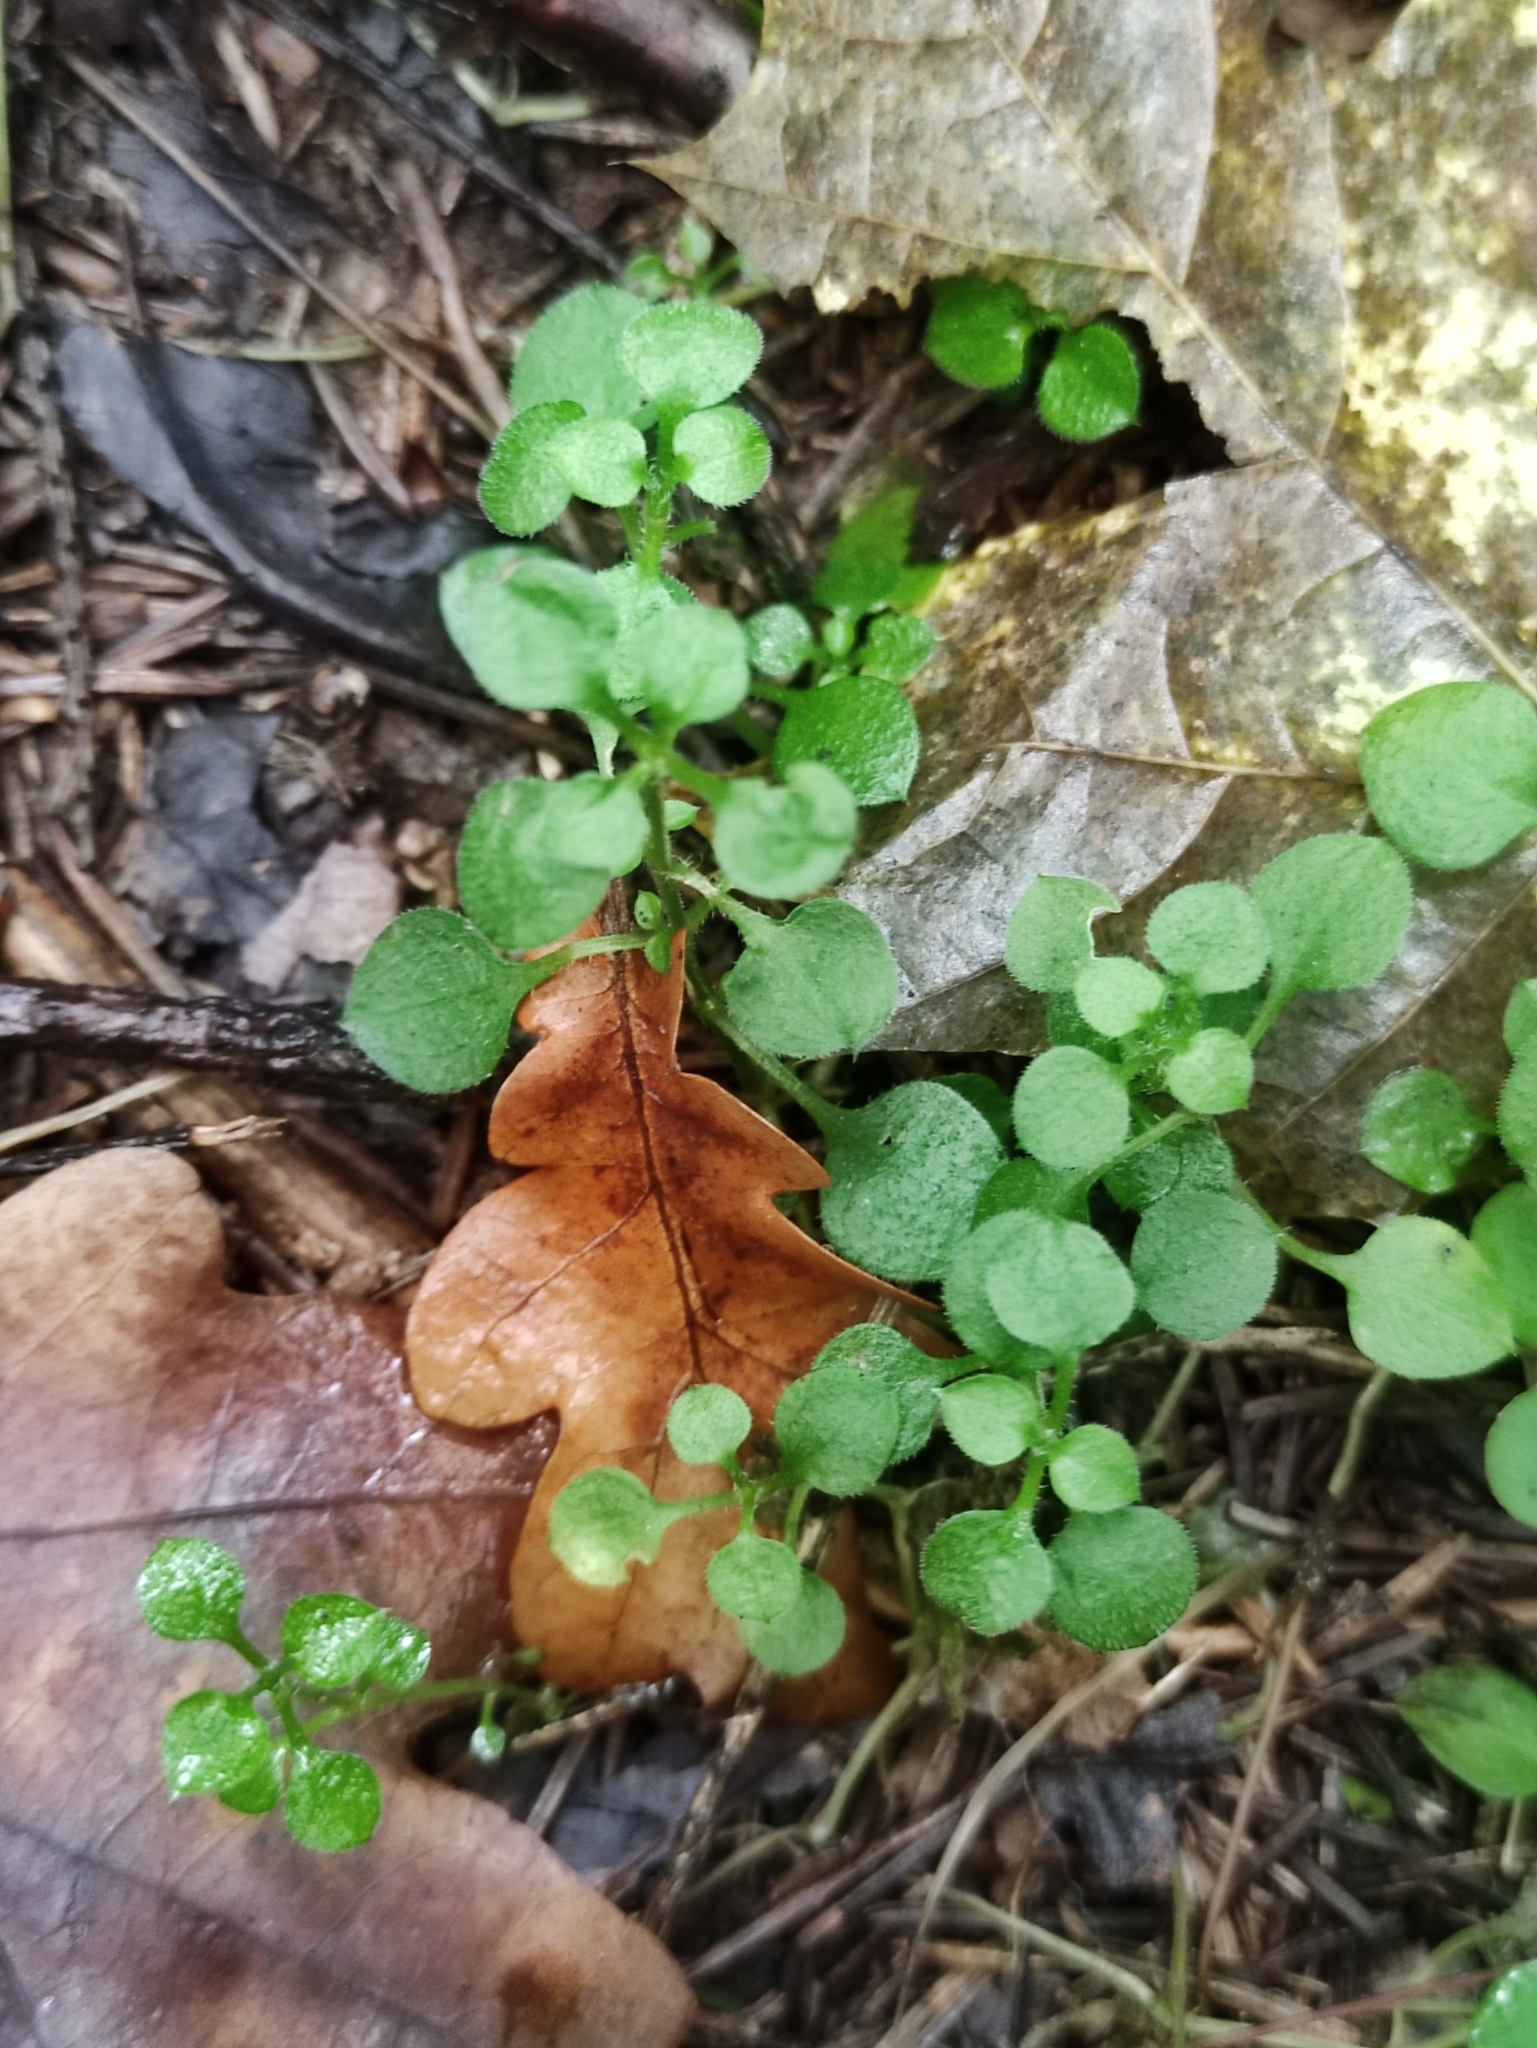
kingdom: Plantae
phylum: Tracheophyta
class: Magnoliopsida
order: Caryophyllales
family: Caryophyllaceae
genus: Moehringia
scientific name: Moehringia trinervia
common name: Three-nerved sandwort
